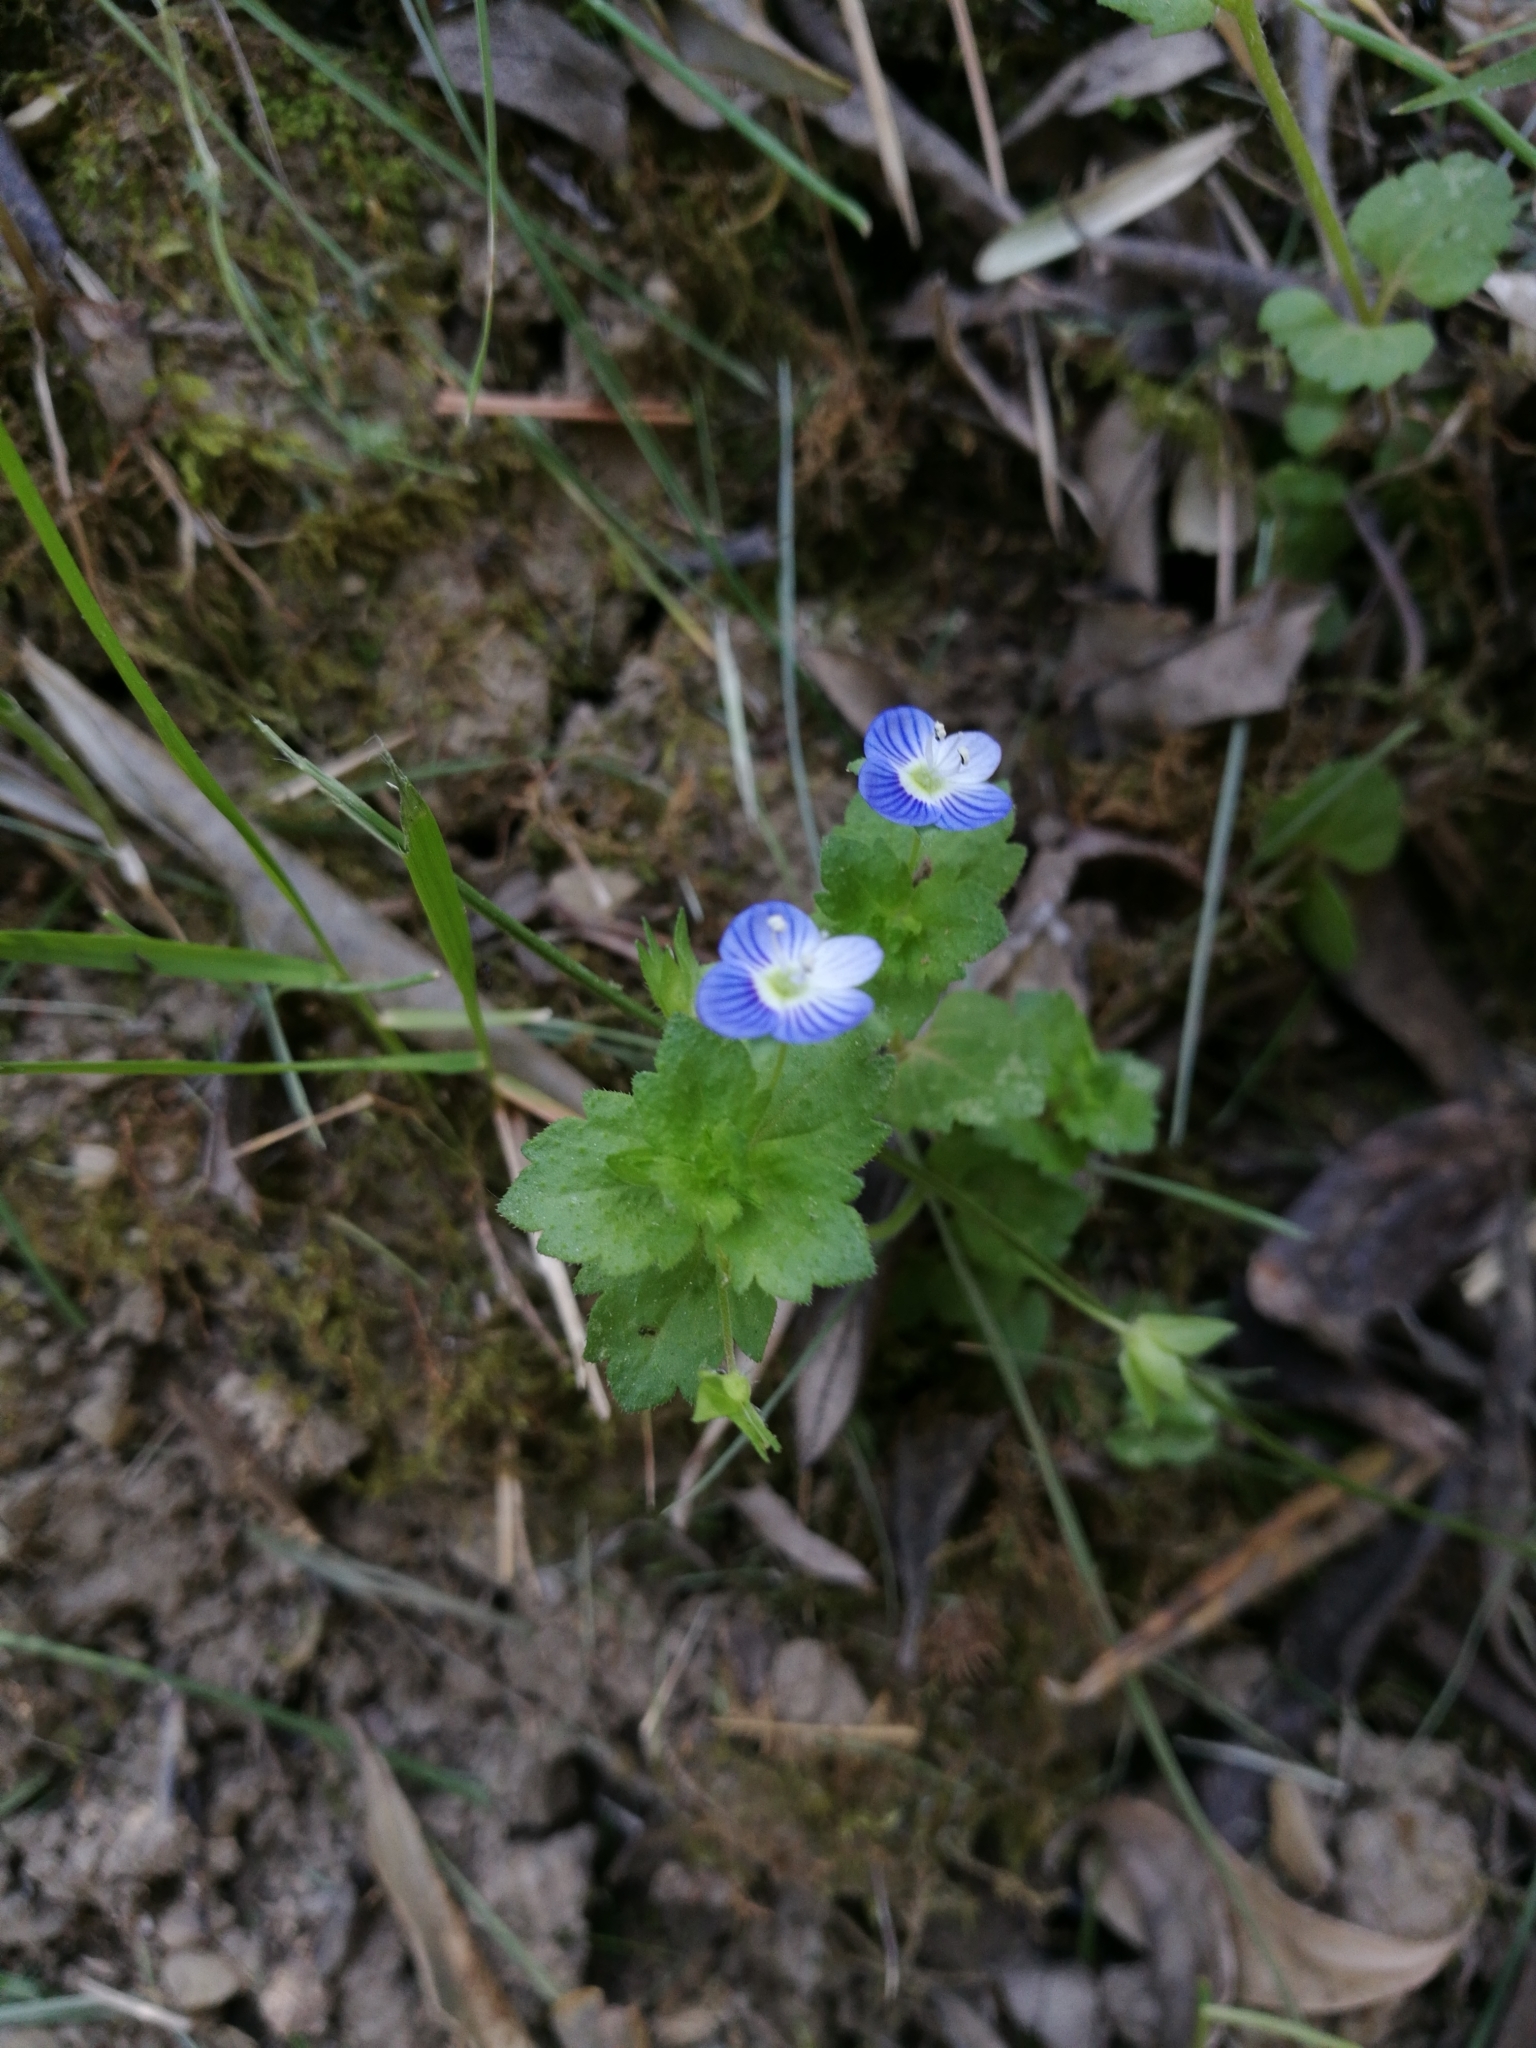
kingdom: Plantae
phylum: Tracheophyta
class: Magnoliopsida
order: Lamiales
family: Plantaginaceae
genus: Veronica
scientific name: Veronica persica
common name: Common field-speedwell
